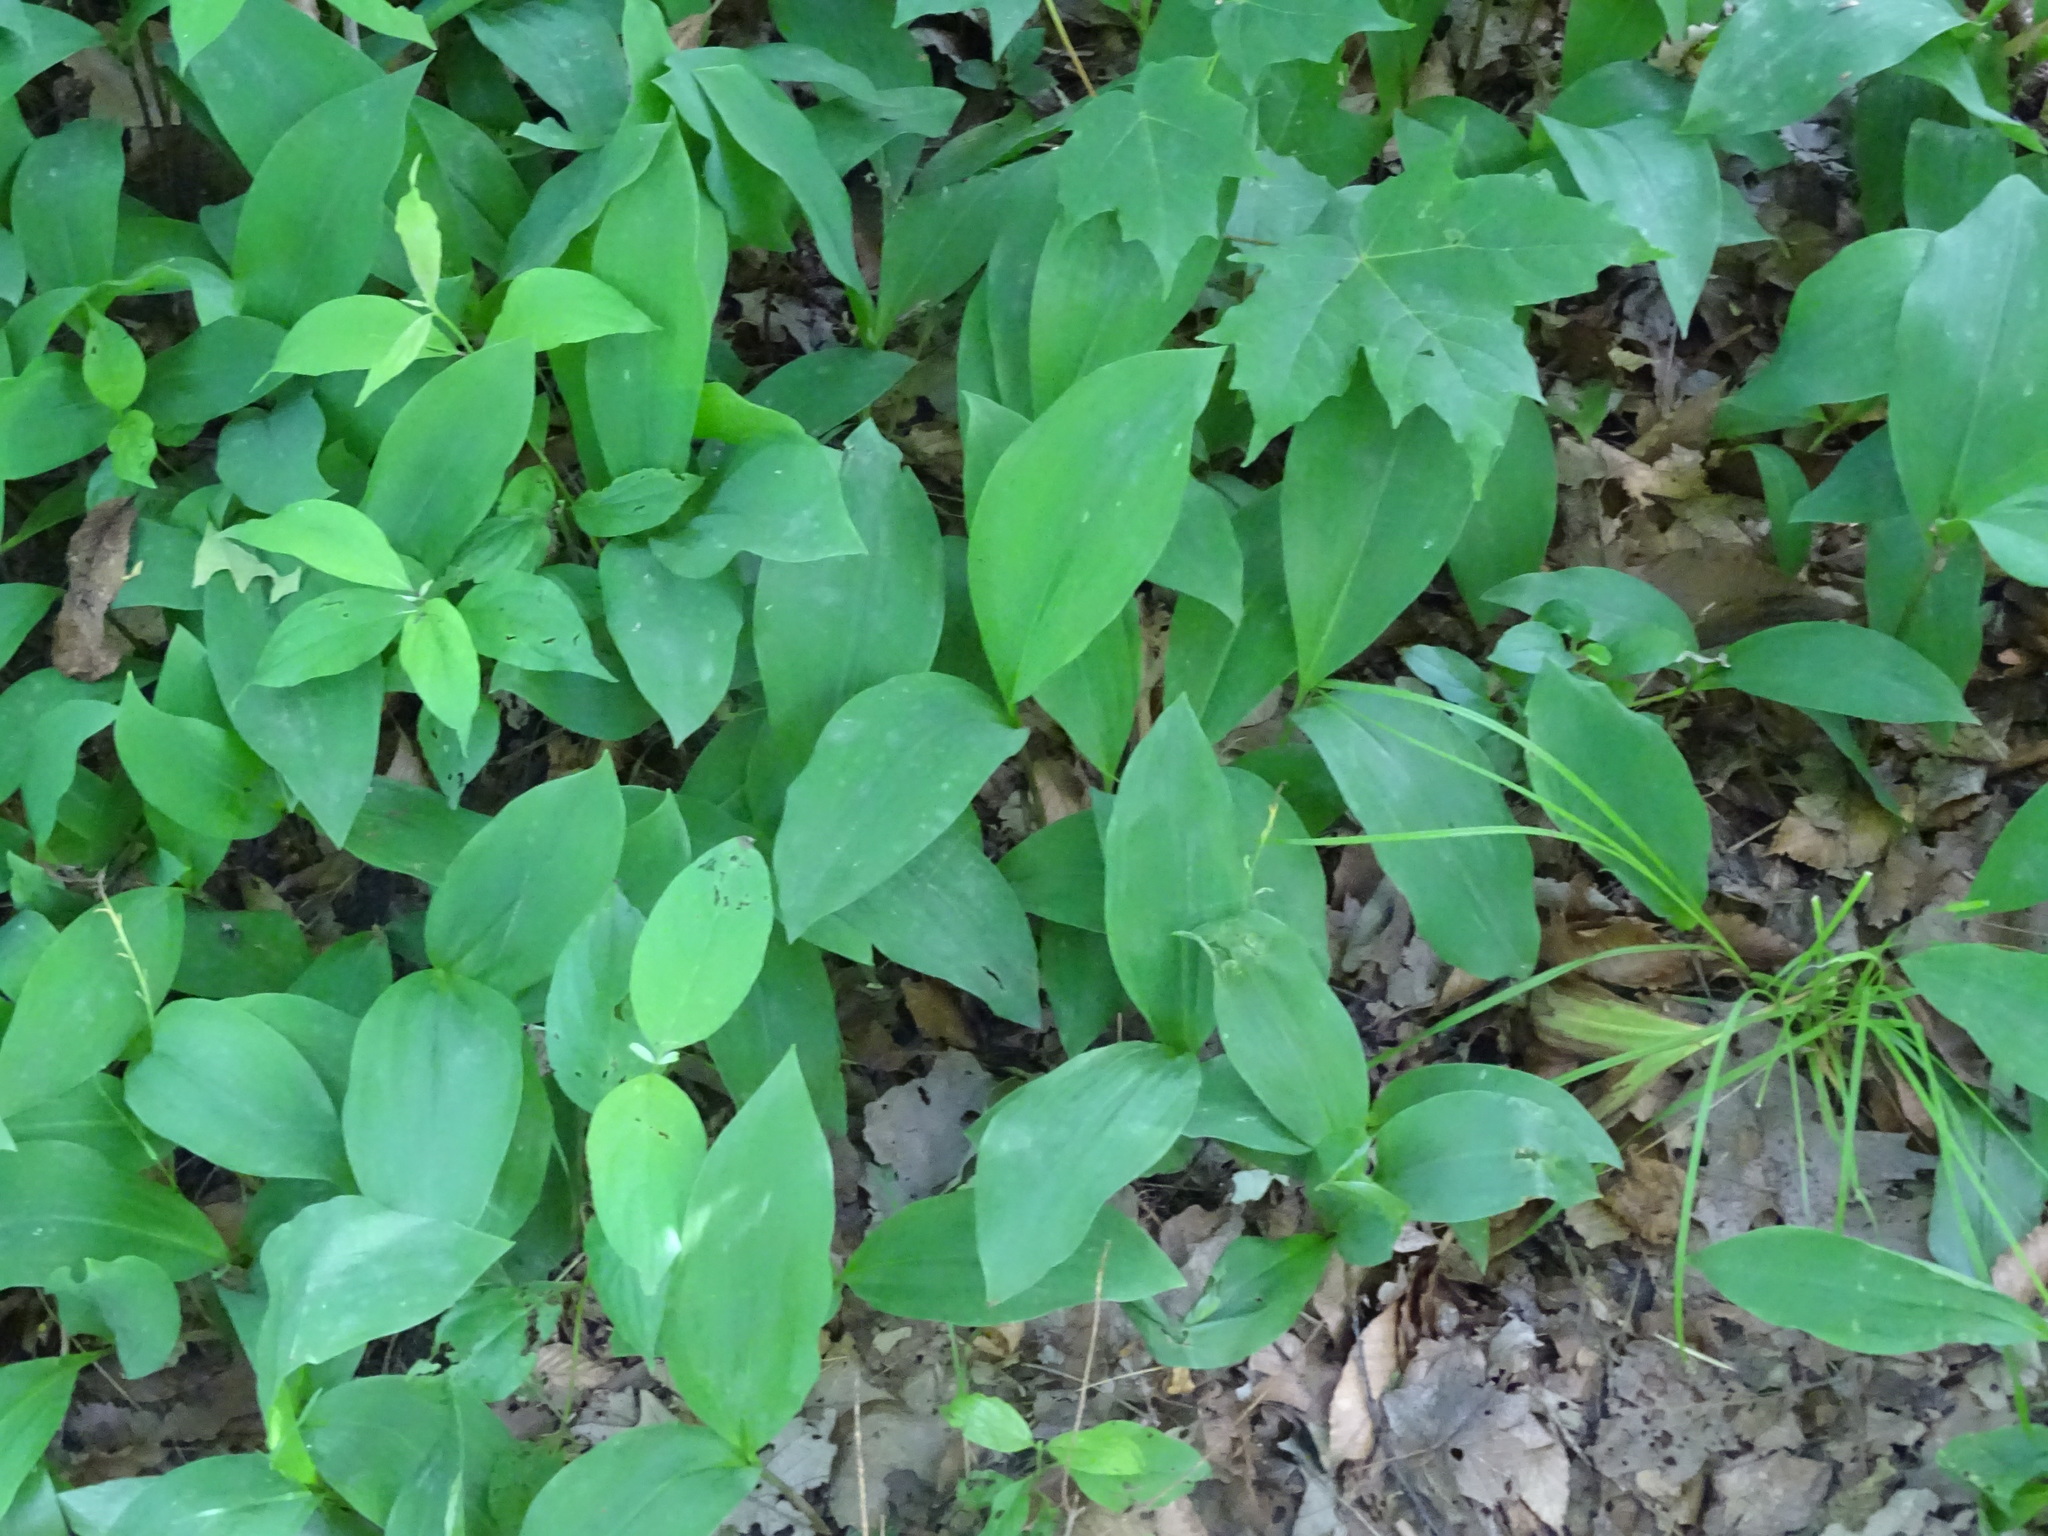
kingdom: Plantae
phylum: Tracheophyta
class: Liliopsida
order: Asparagales
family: Asparagaceae
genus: Convallaria
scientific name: Convallaria majalis
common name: Lily-of-the-valley
